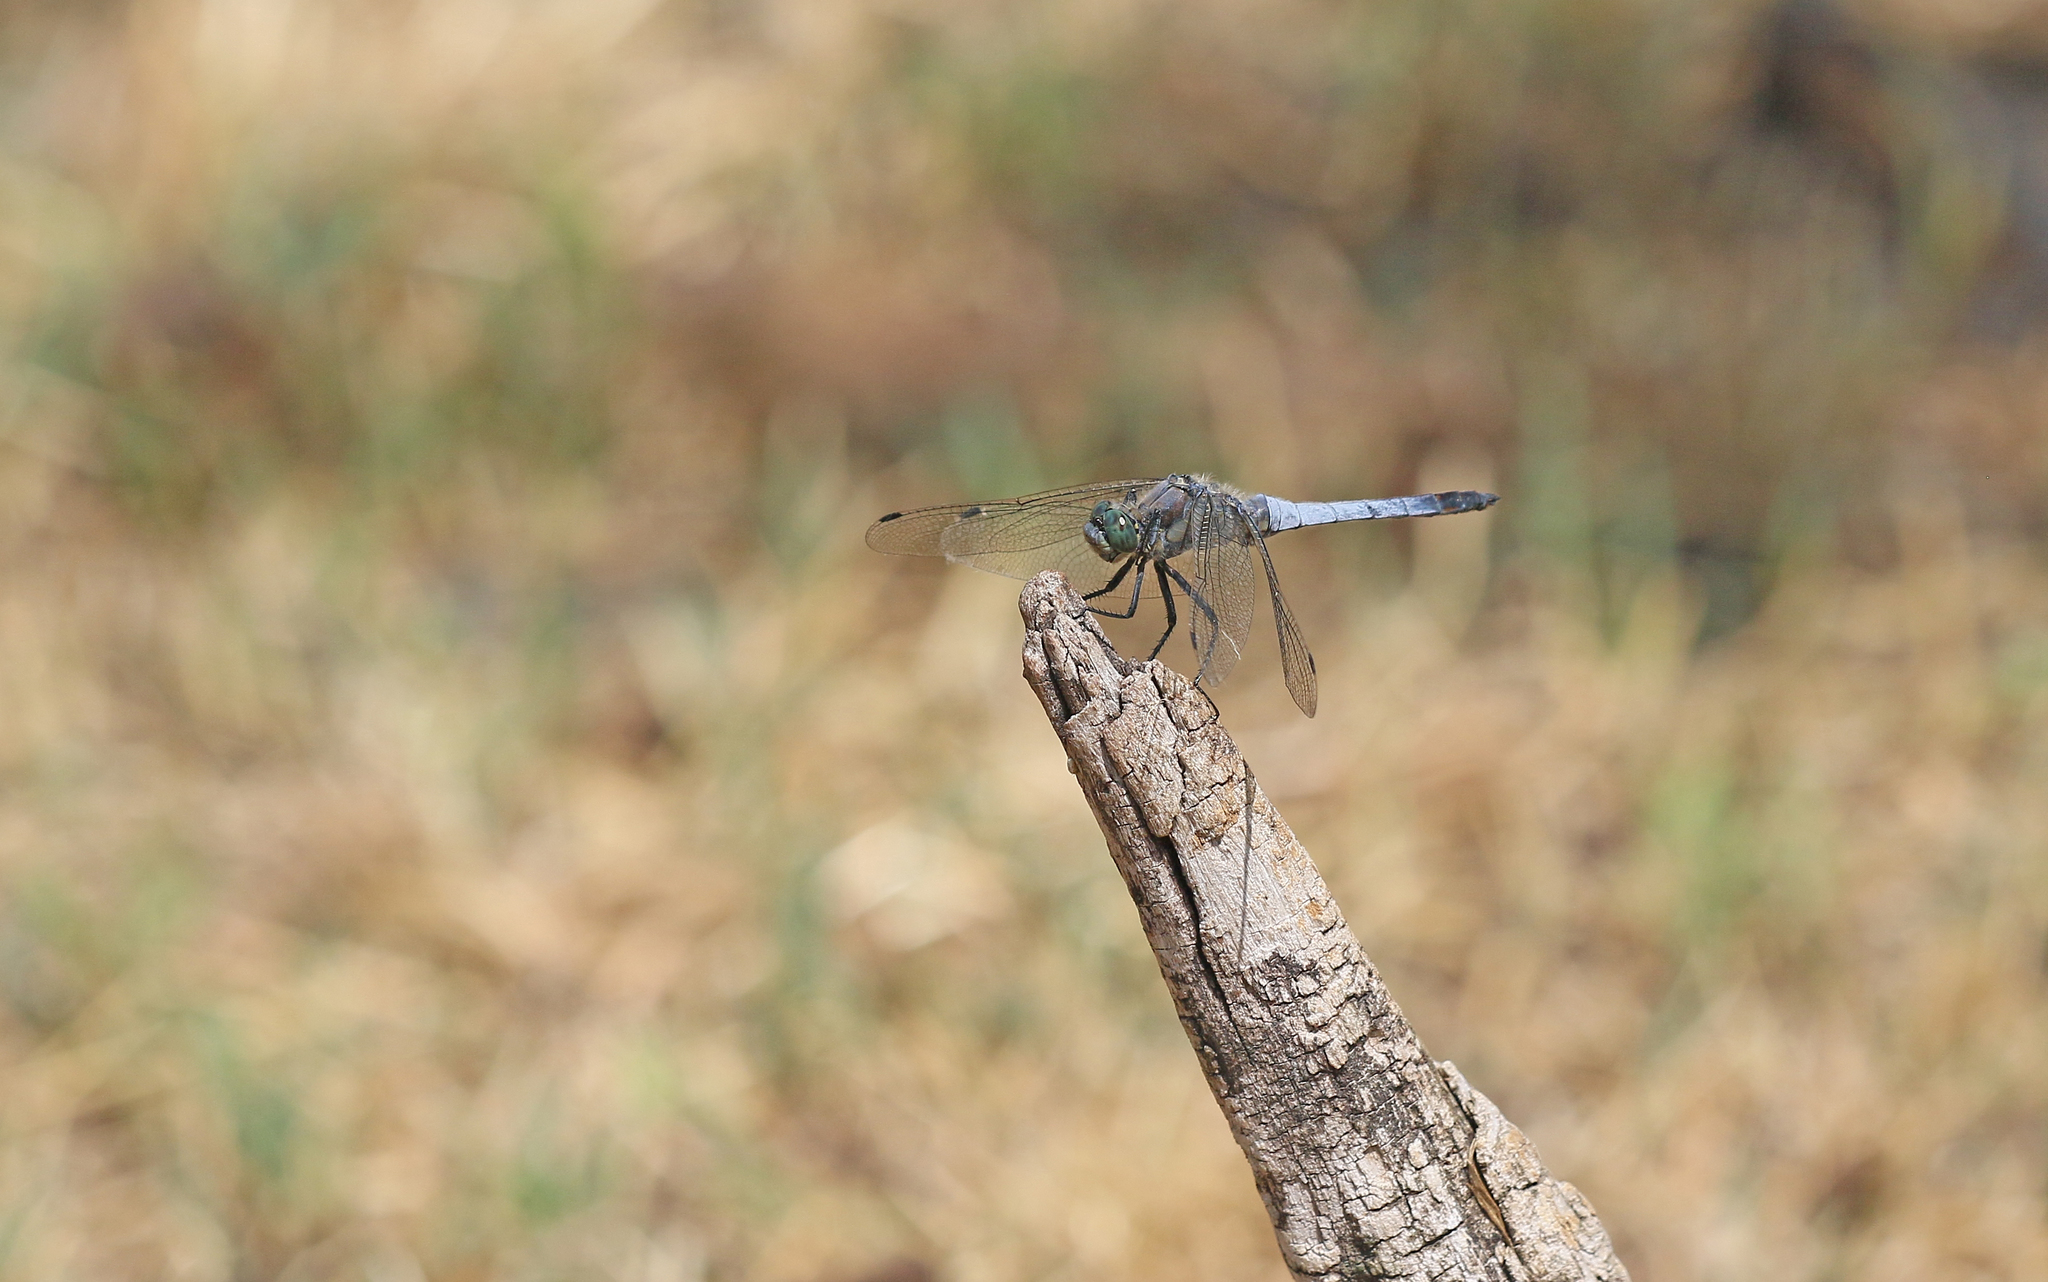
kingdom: Animalia
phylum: Arthropoda
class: Insecta
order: Odonata
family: Libellulidae
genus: Orthetrum
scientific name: Orthetrum cancellatum
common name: Black-tailed skimmer
